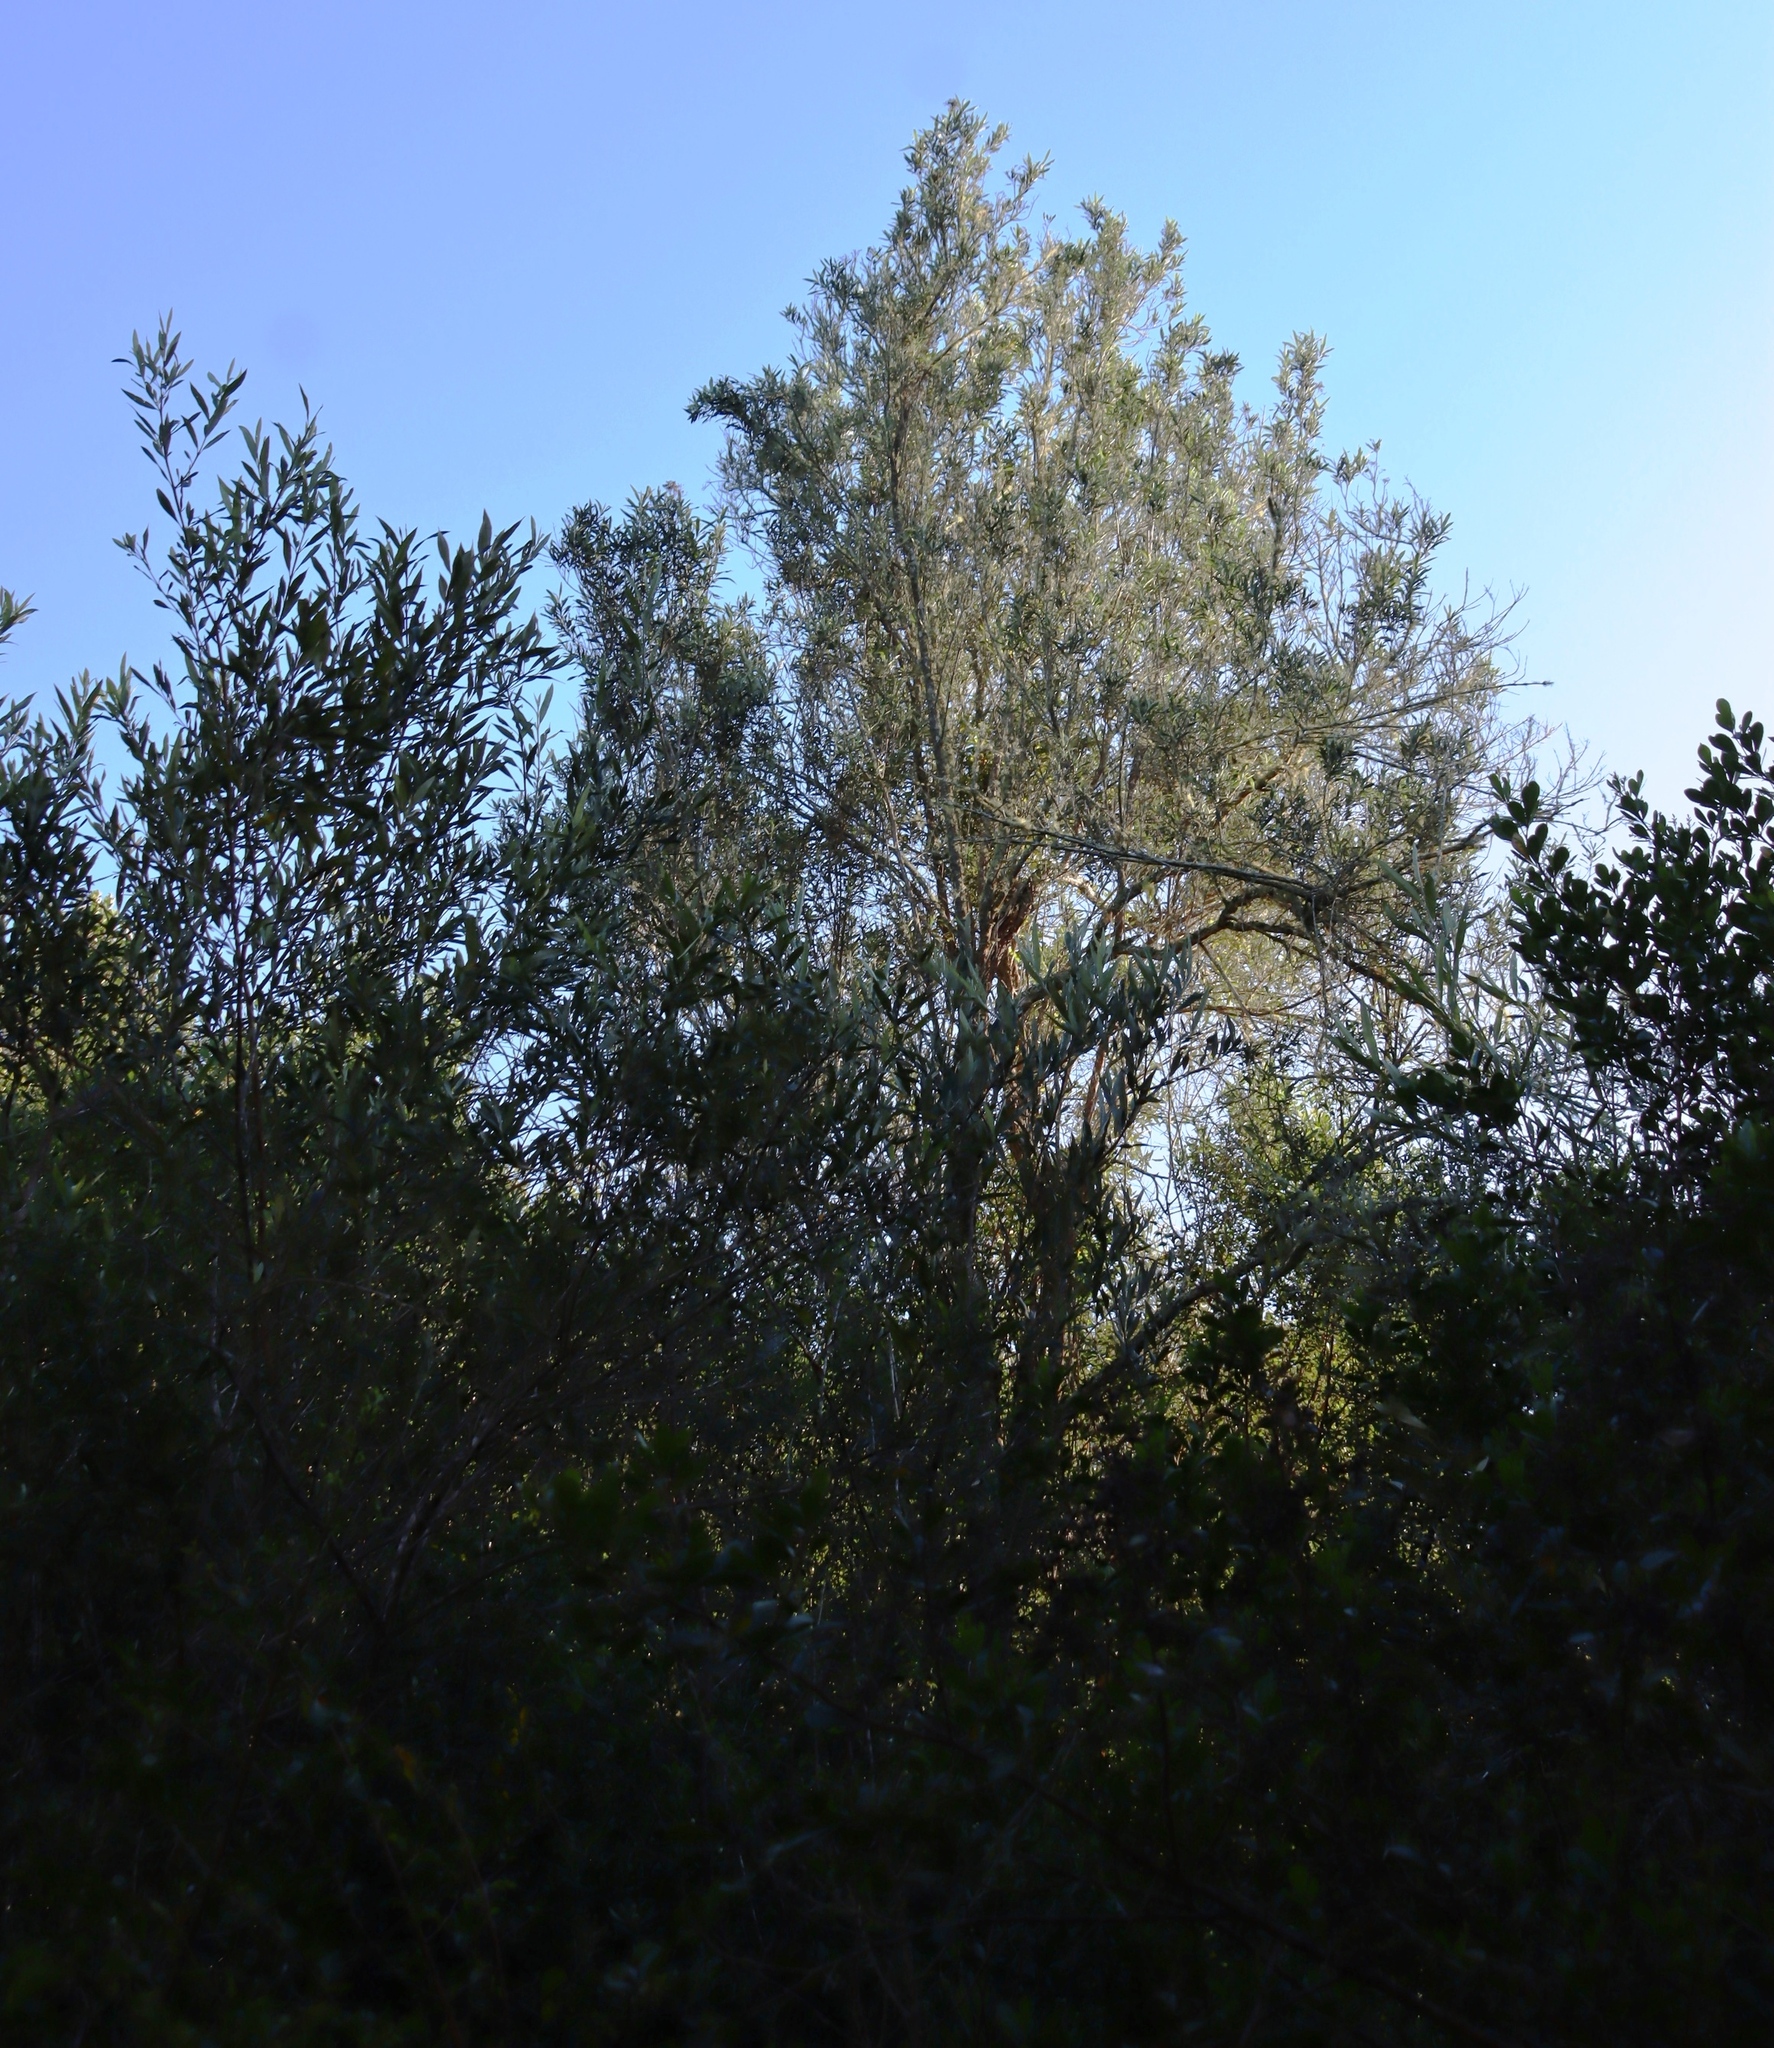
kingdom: Plantae
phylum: Tracheophyta
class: Magnoliopsida
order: Lamiales
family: Scrophulariaceae
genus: Buddleja
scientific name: Buddleja saligna
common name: False olive
